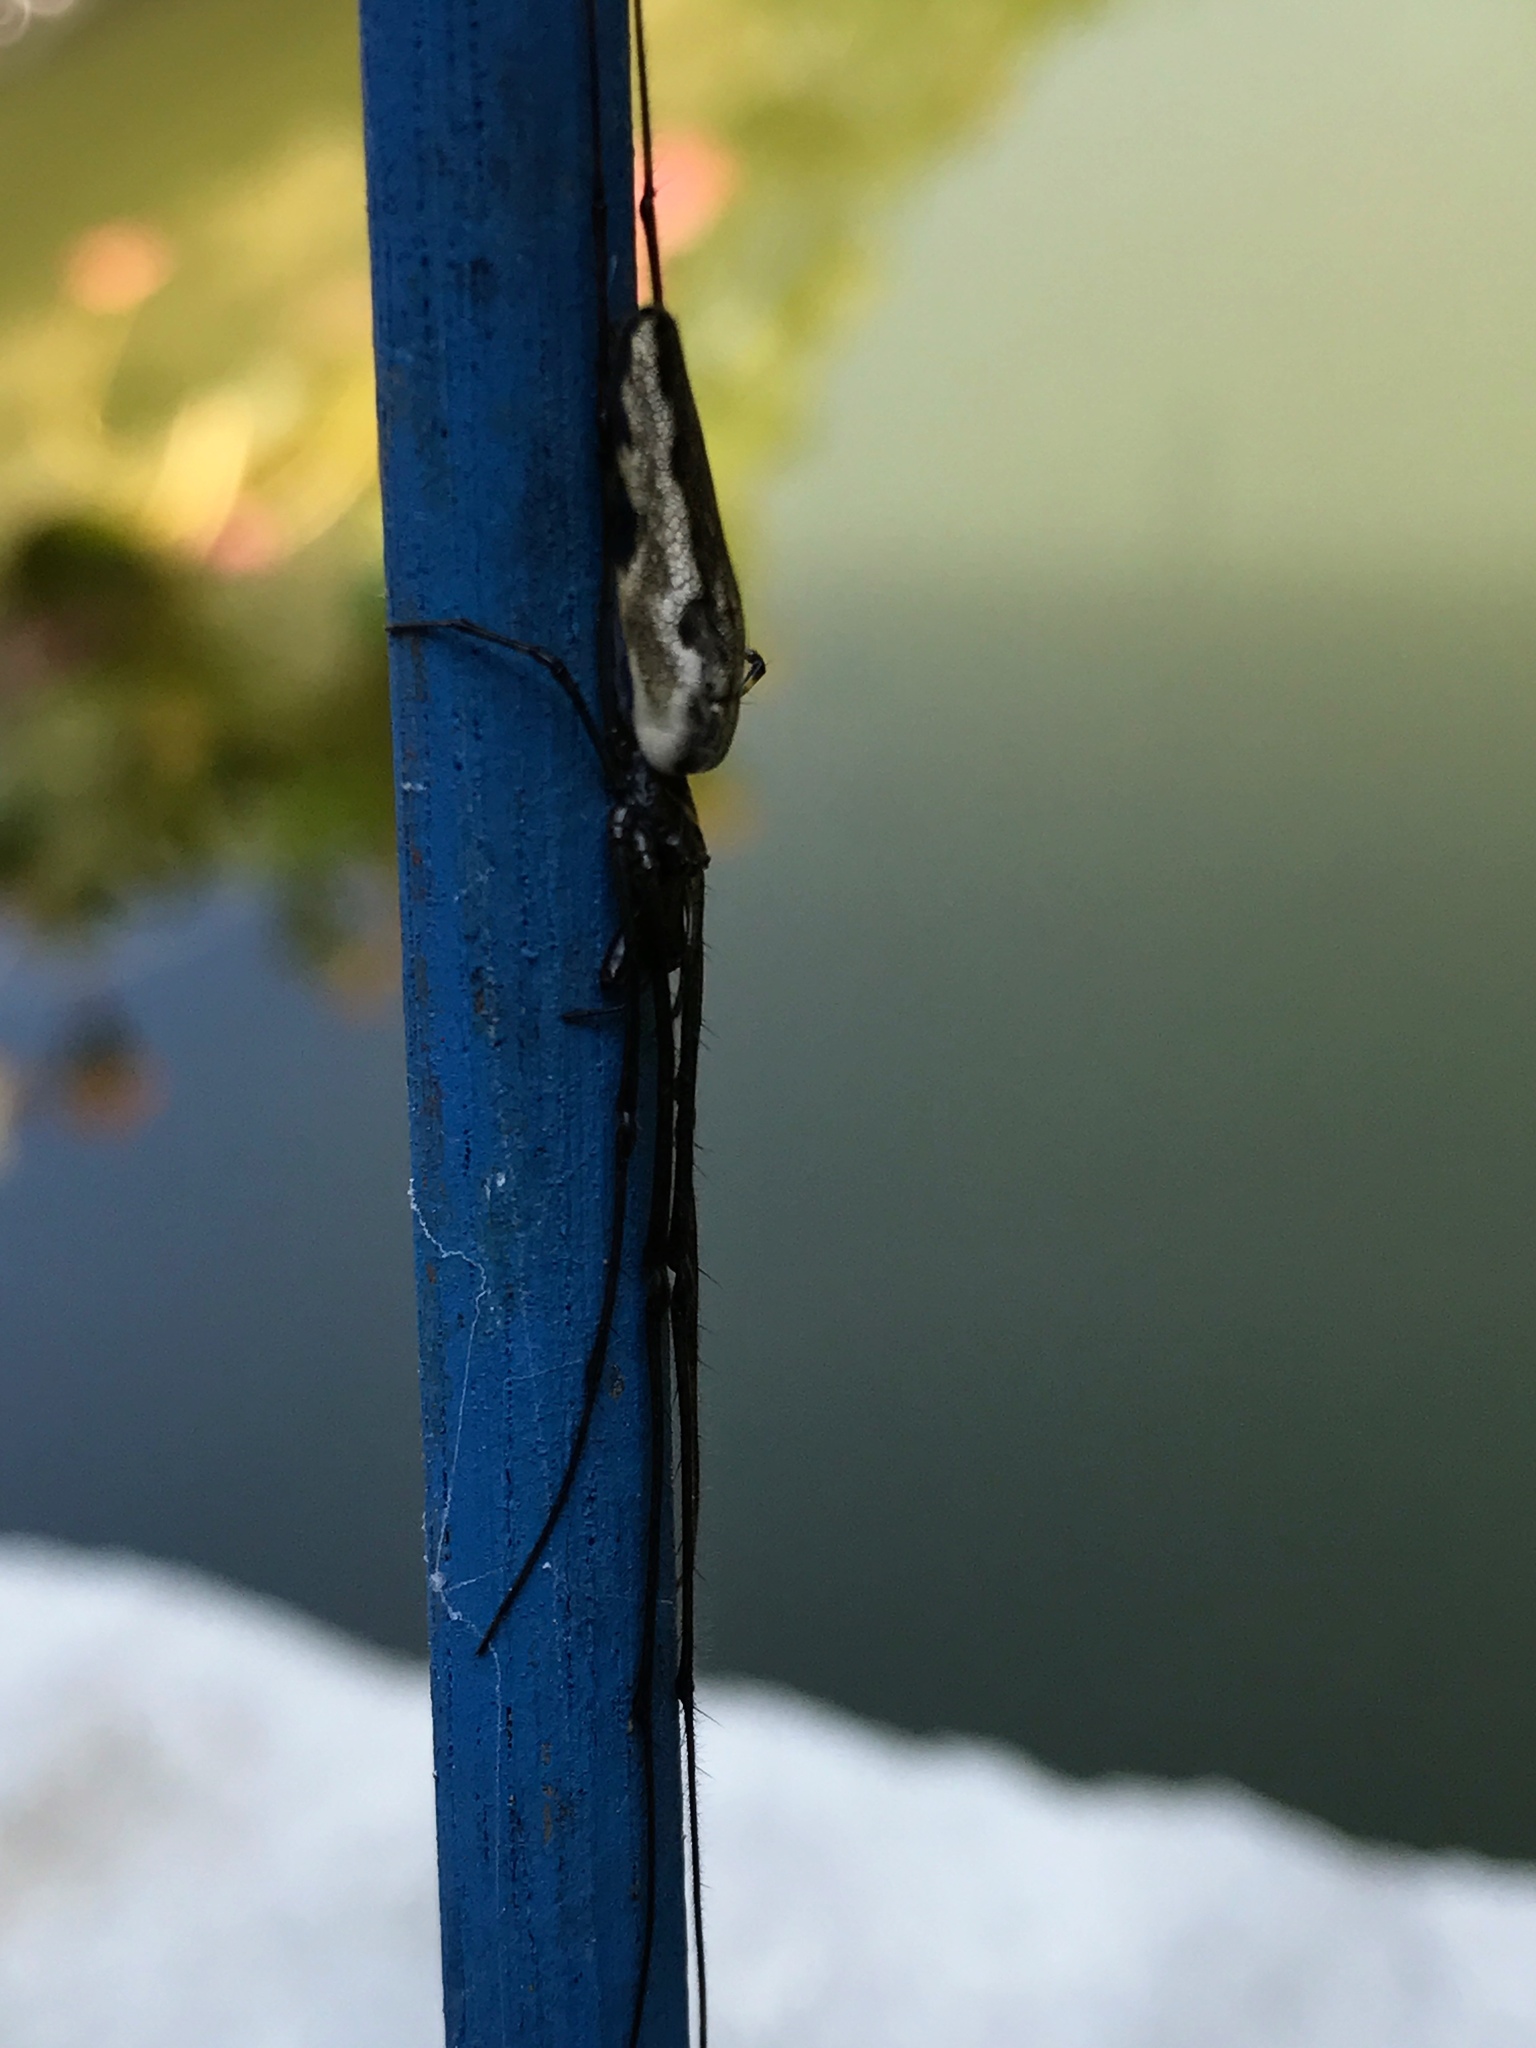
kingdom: Animalia
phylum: Arthropoda
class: Arachnida
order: Araneae
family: Tetragnathidae
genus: Tetragnatha
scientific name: Tetragnatha
